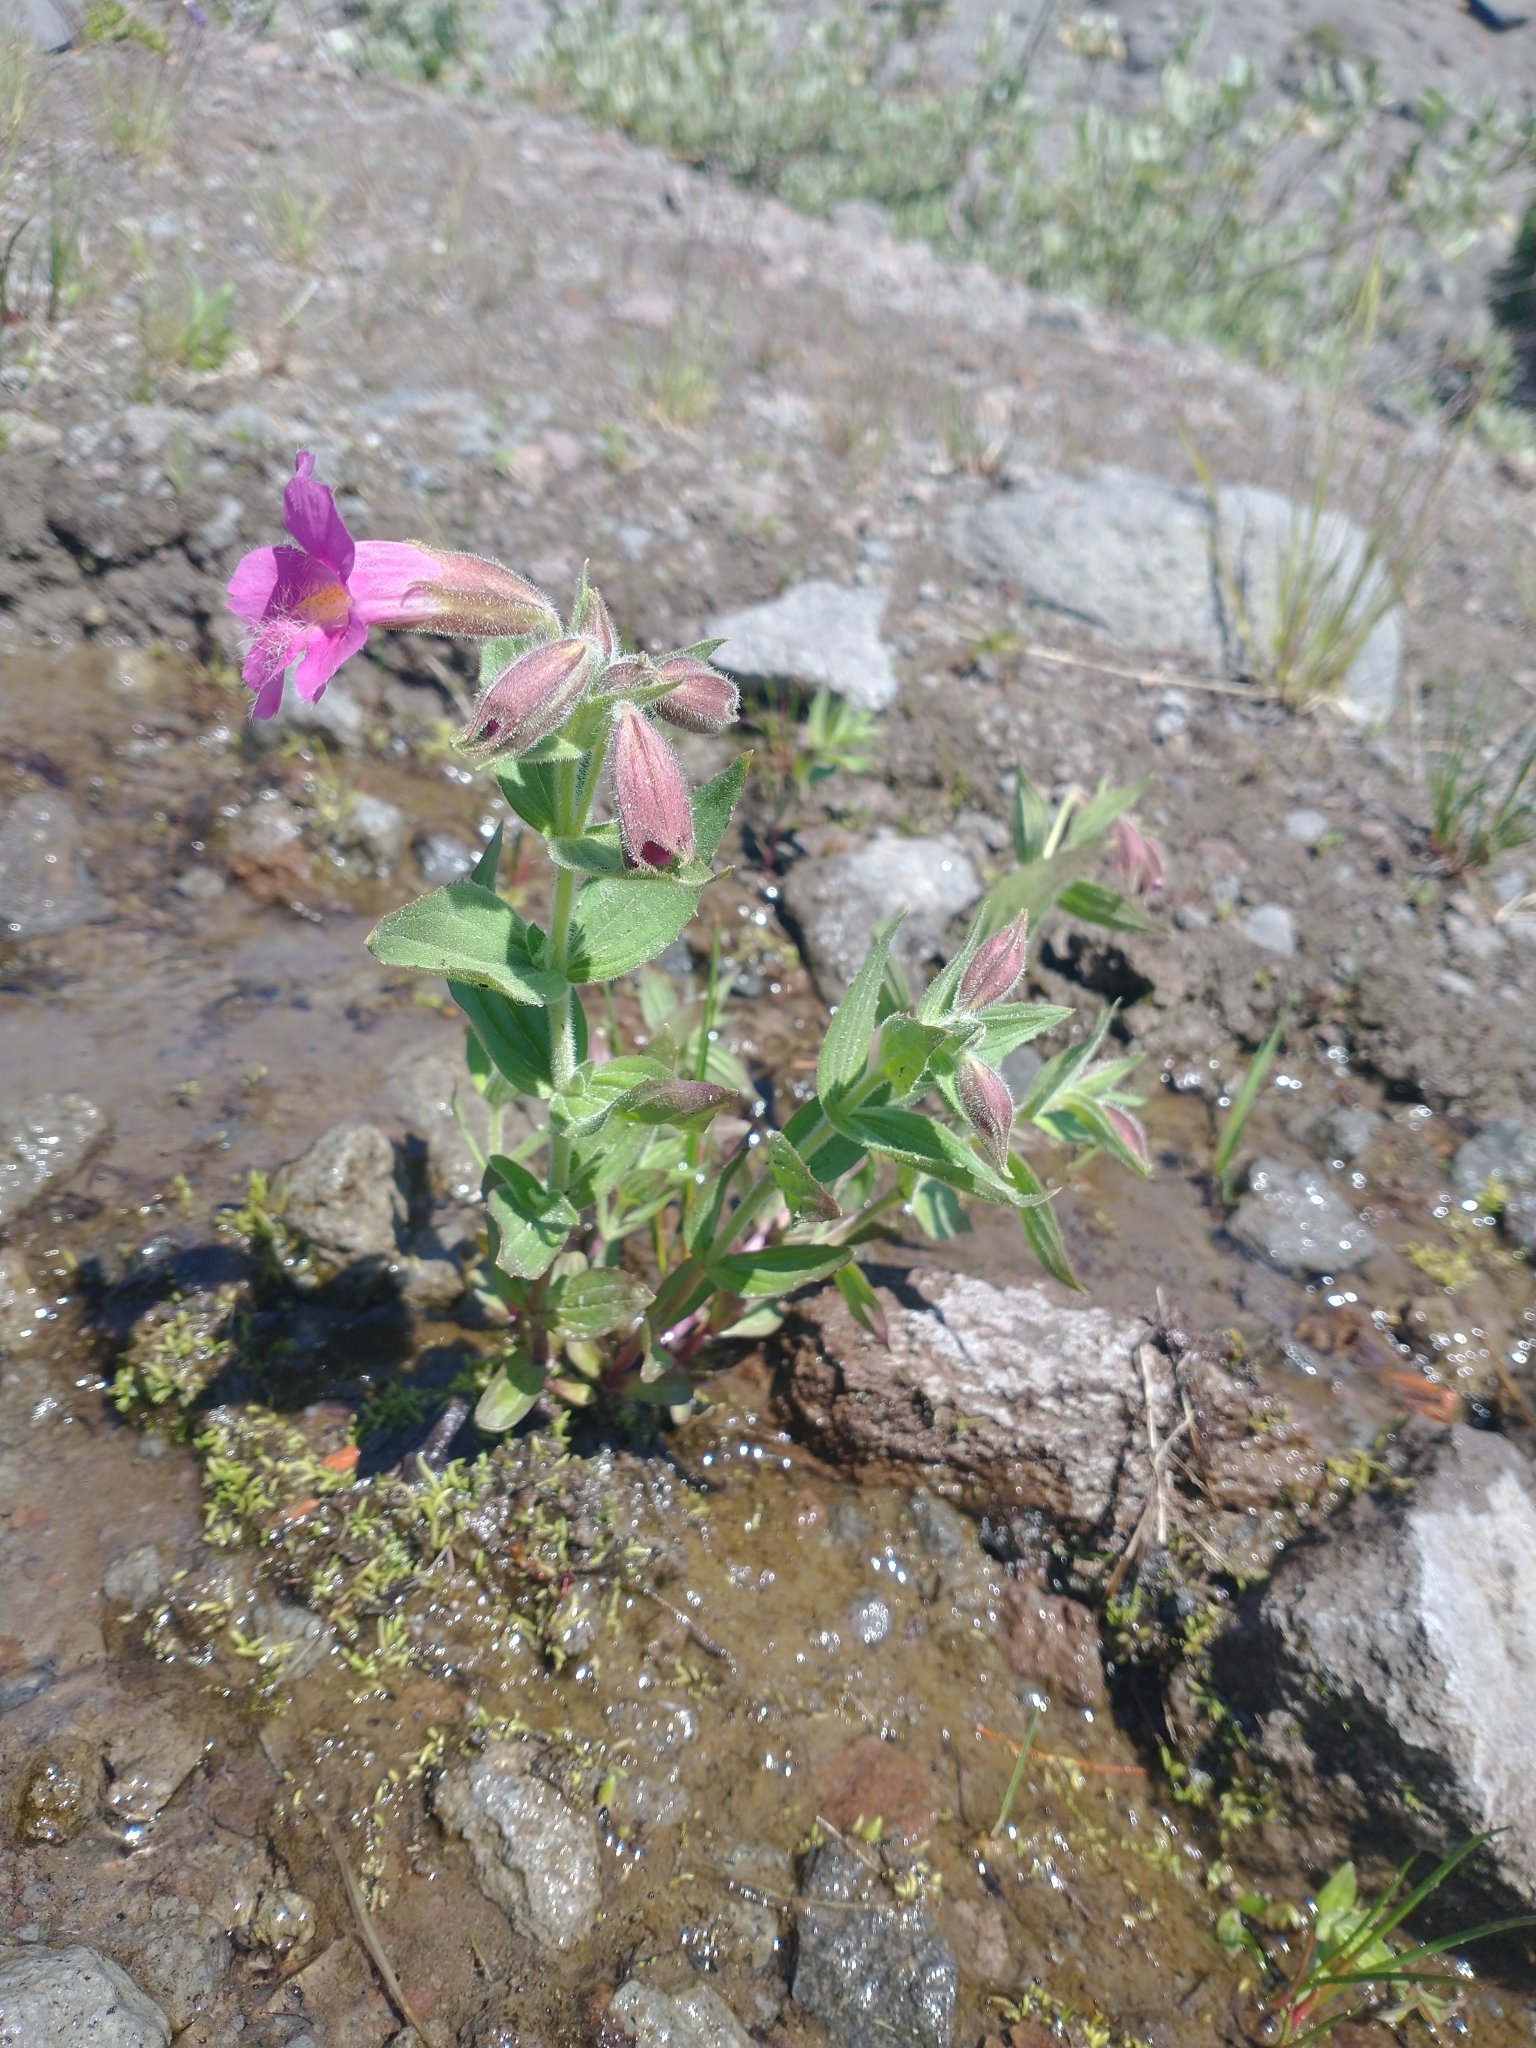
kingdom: Plantae
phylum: Tracheophyta
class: Magnoliopsida
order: Lamiales
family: Phrymaceae
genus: Erythranthe
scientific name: Erythranthe lewisii
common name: Lewis's monkey-flower
